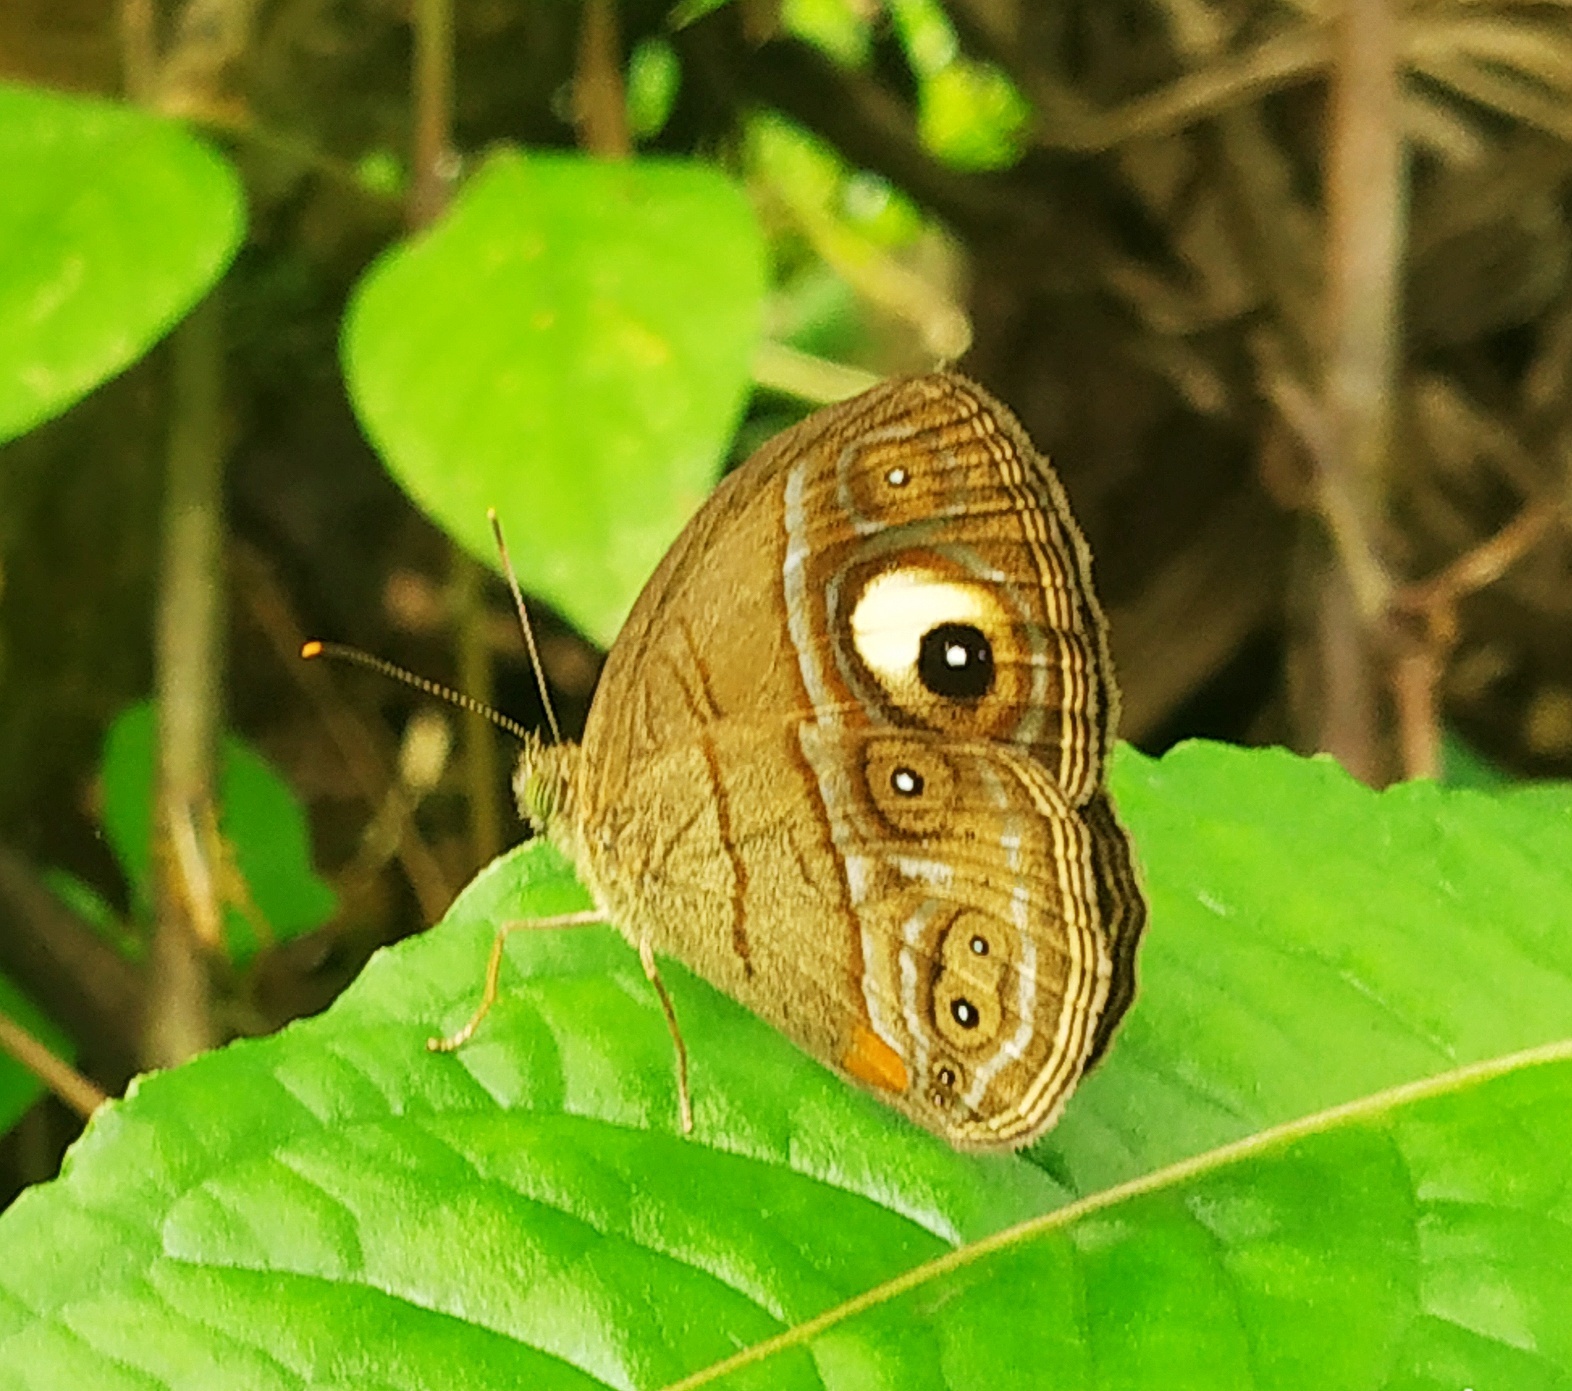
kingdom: Animalia
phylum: Arthropoda
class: Insecta
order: Lepidoptera
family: Nymphalidae
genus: Mycalesis
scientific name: Mycalesis patnia
